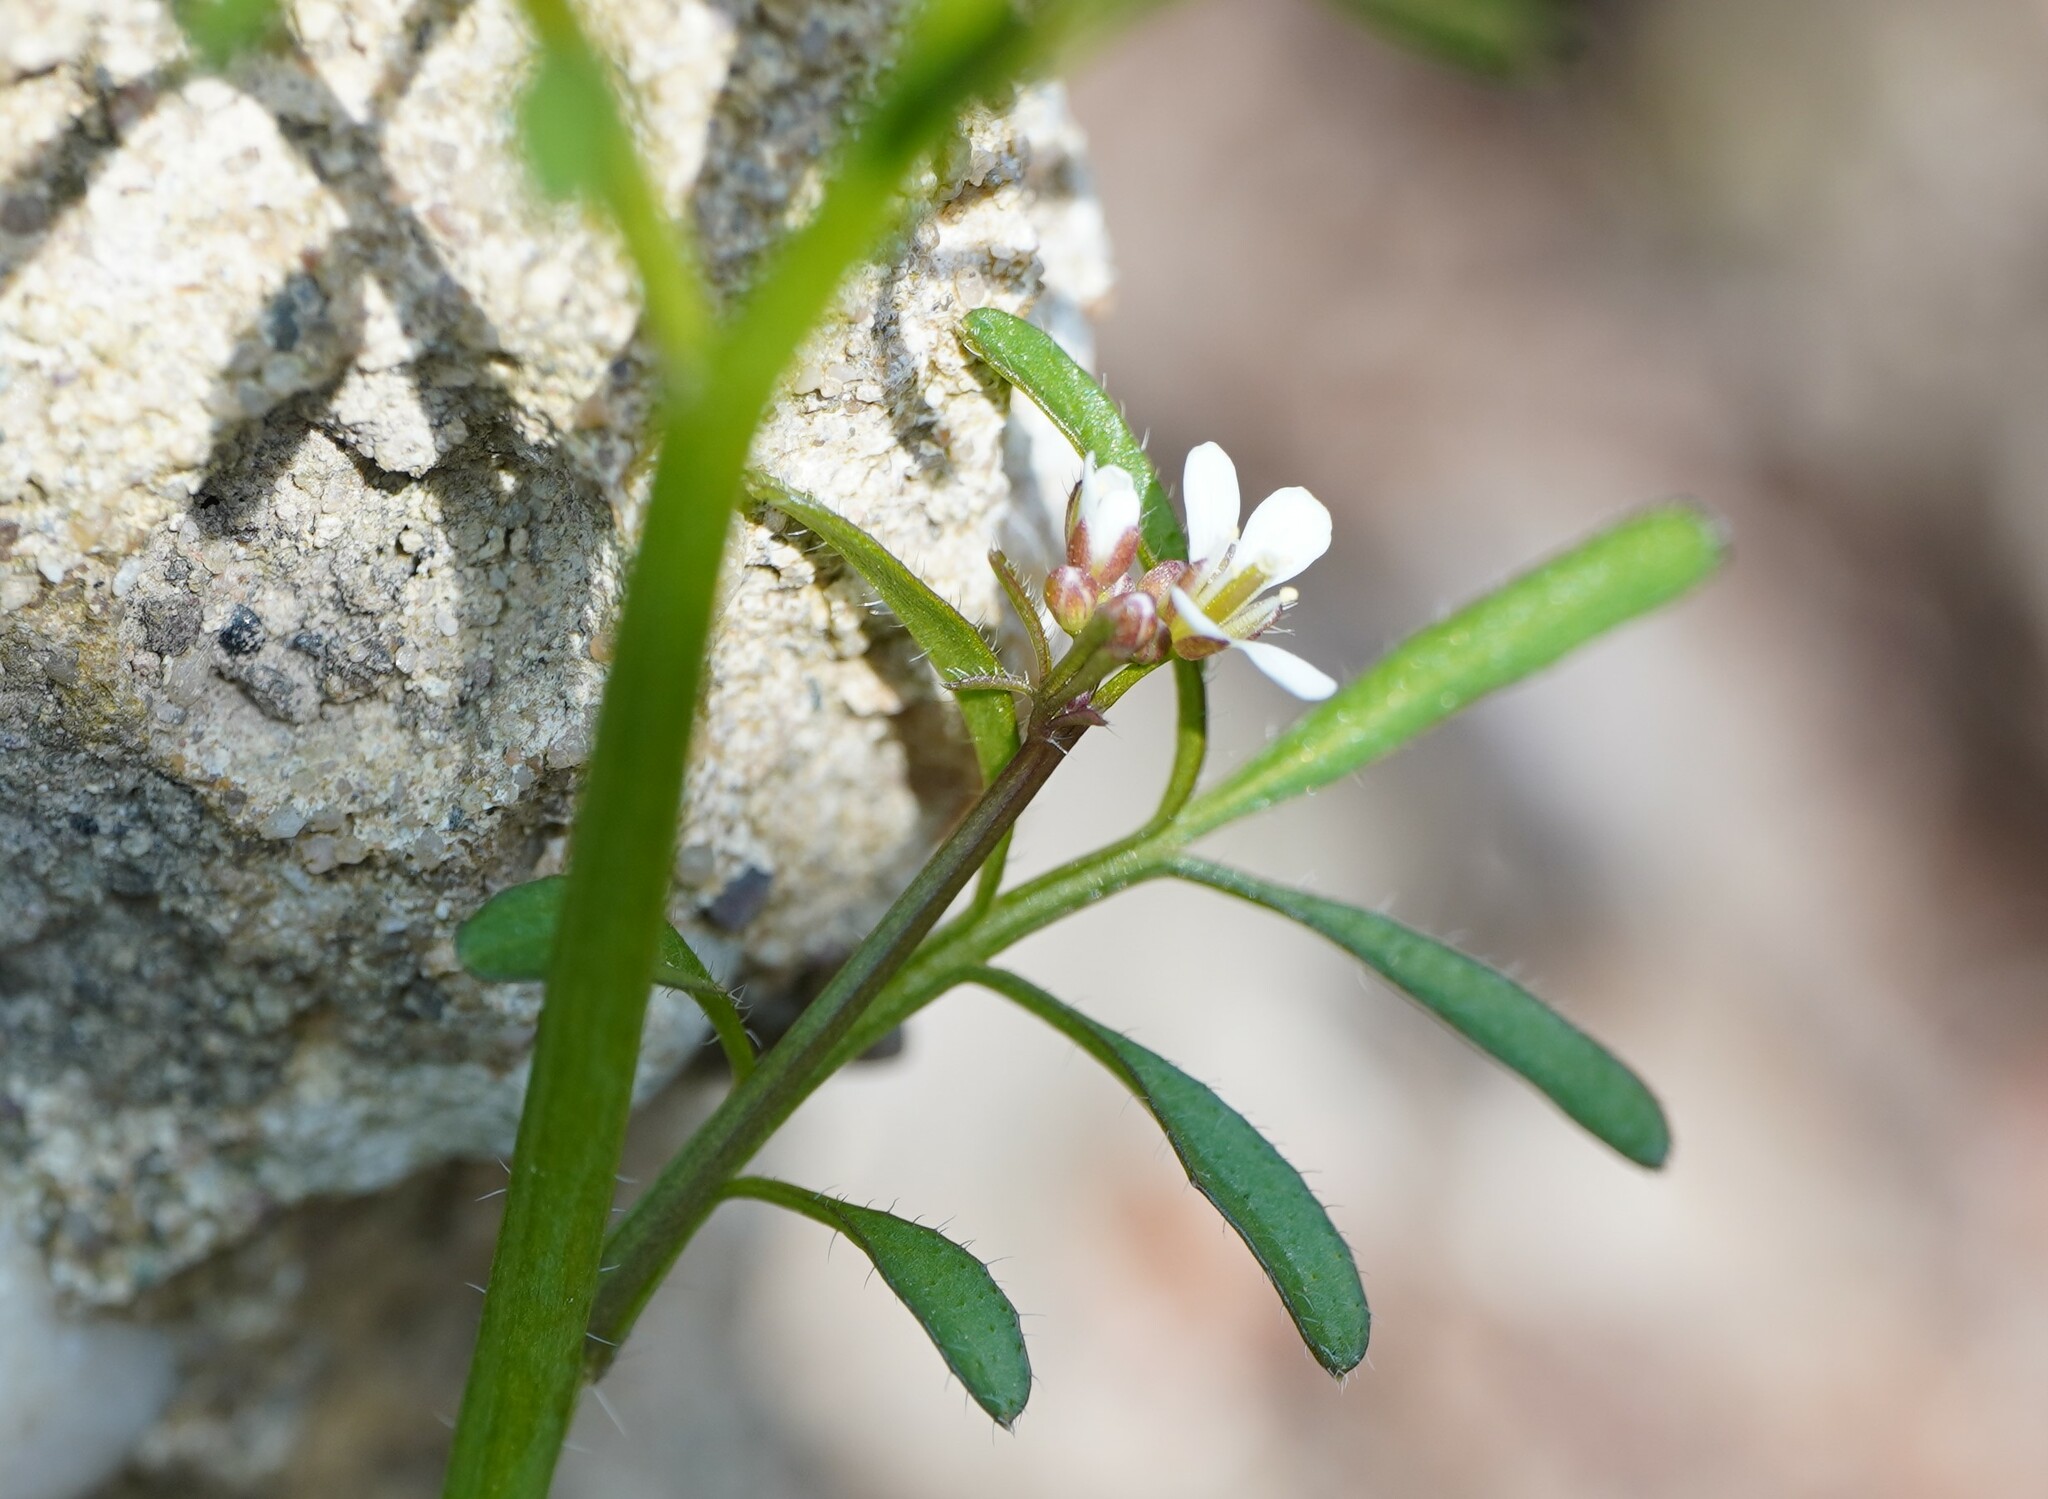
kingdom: Plantae
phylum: Tracheophyta
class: Magnoliopsida
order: Brassicales
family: Brassicaceae
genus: Cardamine
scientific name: Cardamine hirsuta
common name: Hairy bittercress
